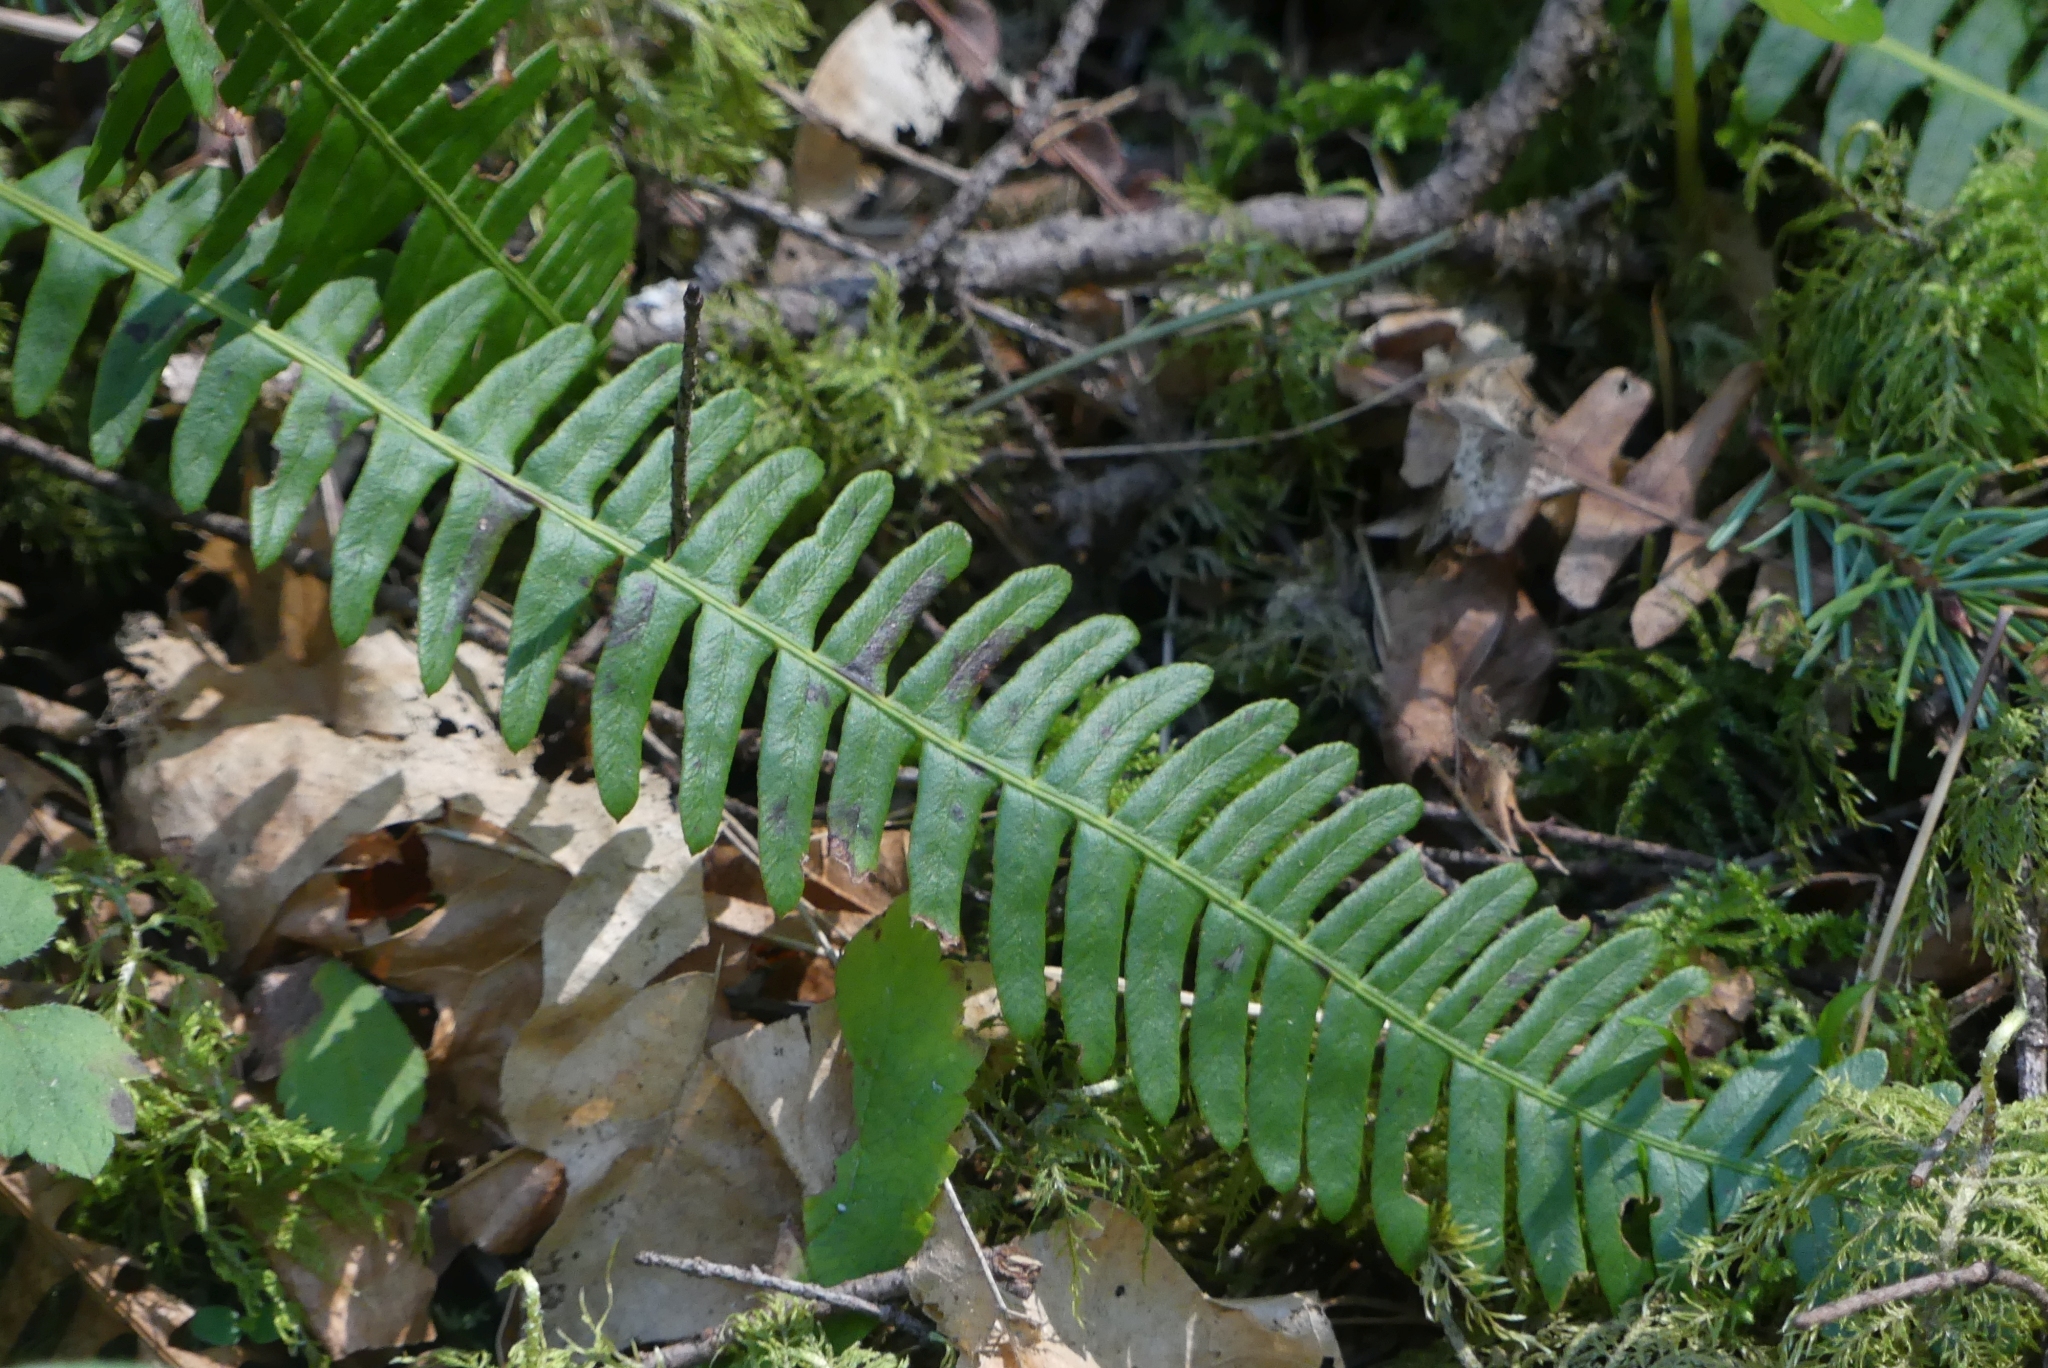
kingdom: Plantae
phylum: Tracheophyta
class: Polypodiopsida
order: Polypodiales
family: Blechnaceae
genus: Struthiopteris
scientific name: Struthiopteris spicant
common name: Deer fern
